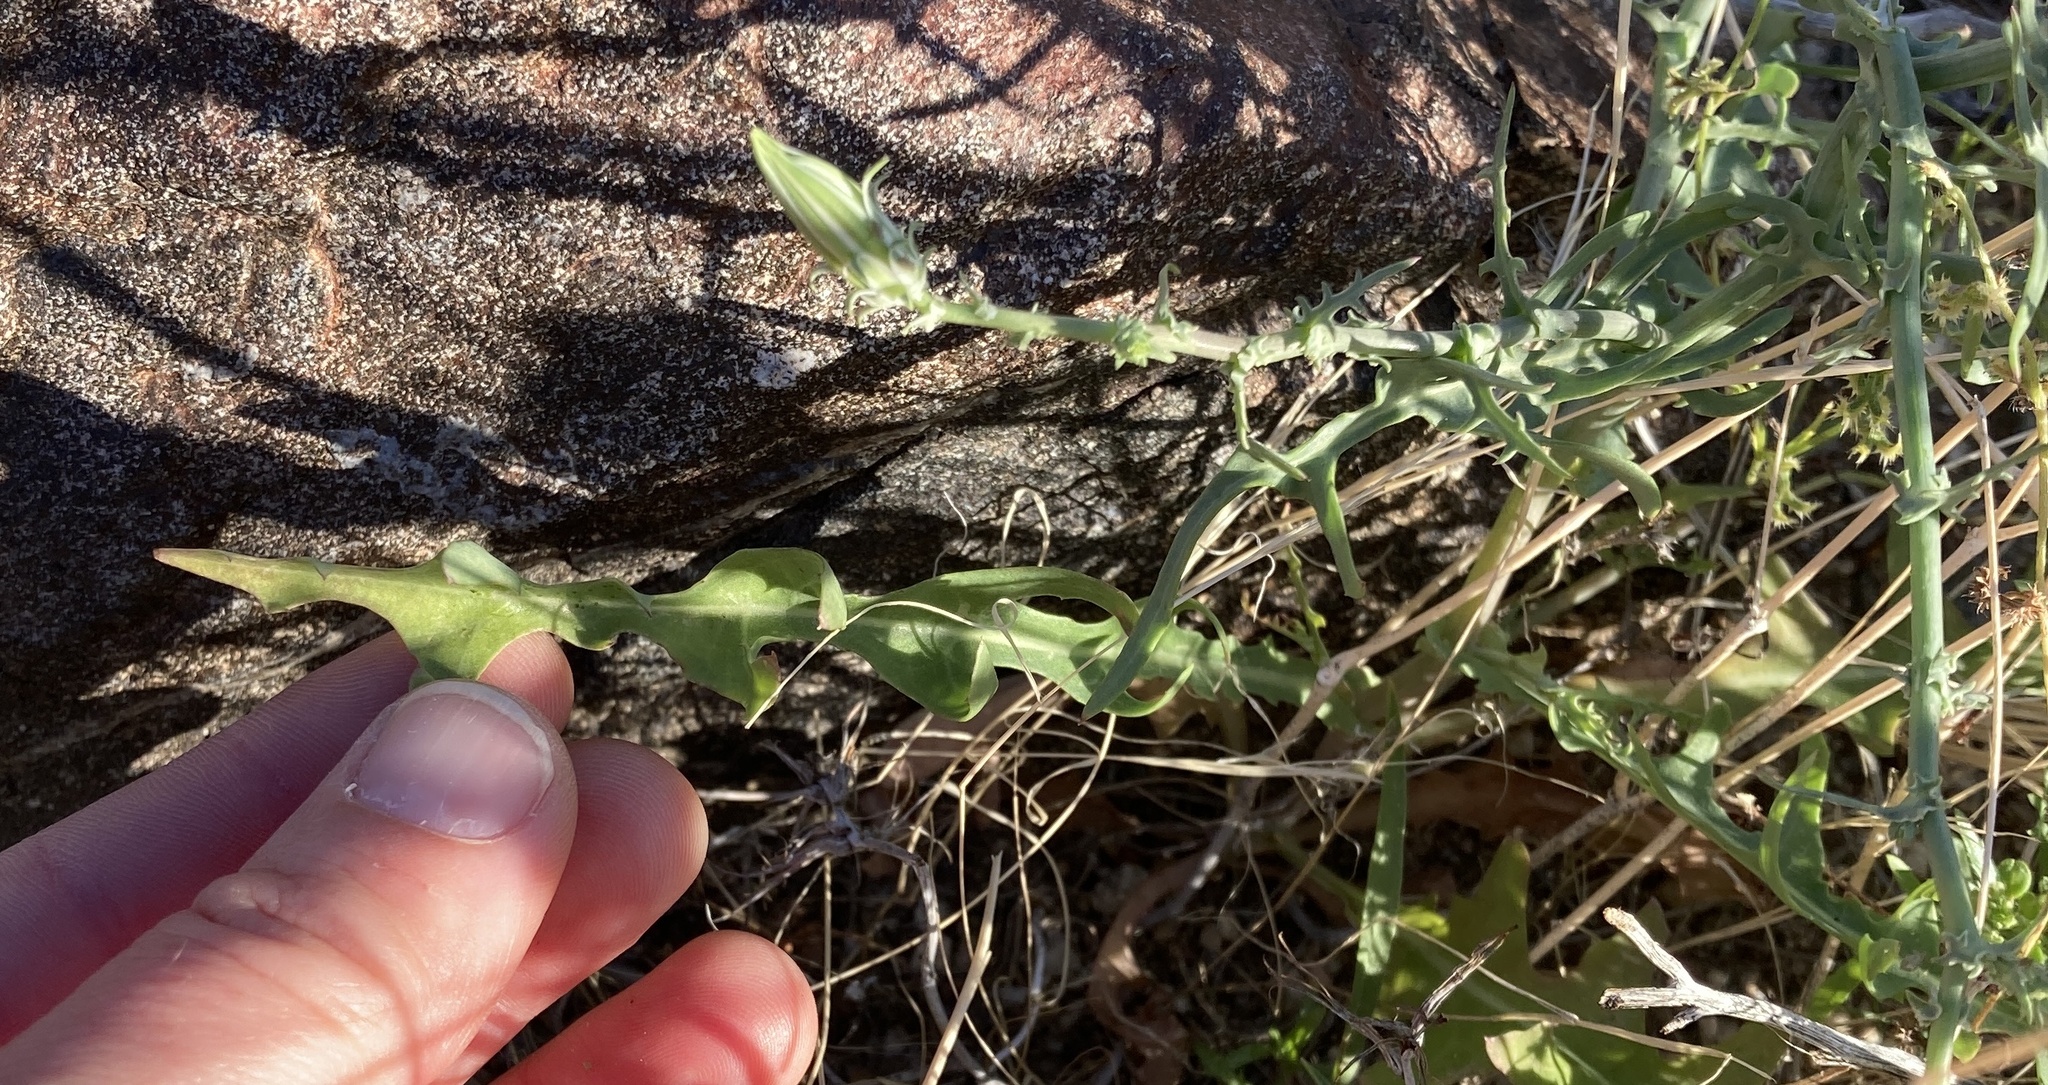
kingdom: Plantae
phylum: Tracheophyta
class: Magnoliopsida
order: Asterales
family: Asteraceae
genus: Rafinesquia
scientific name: Rafinesquia neomexicana
